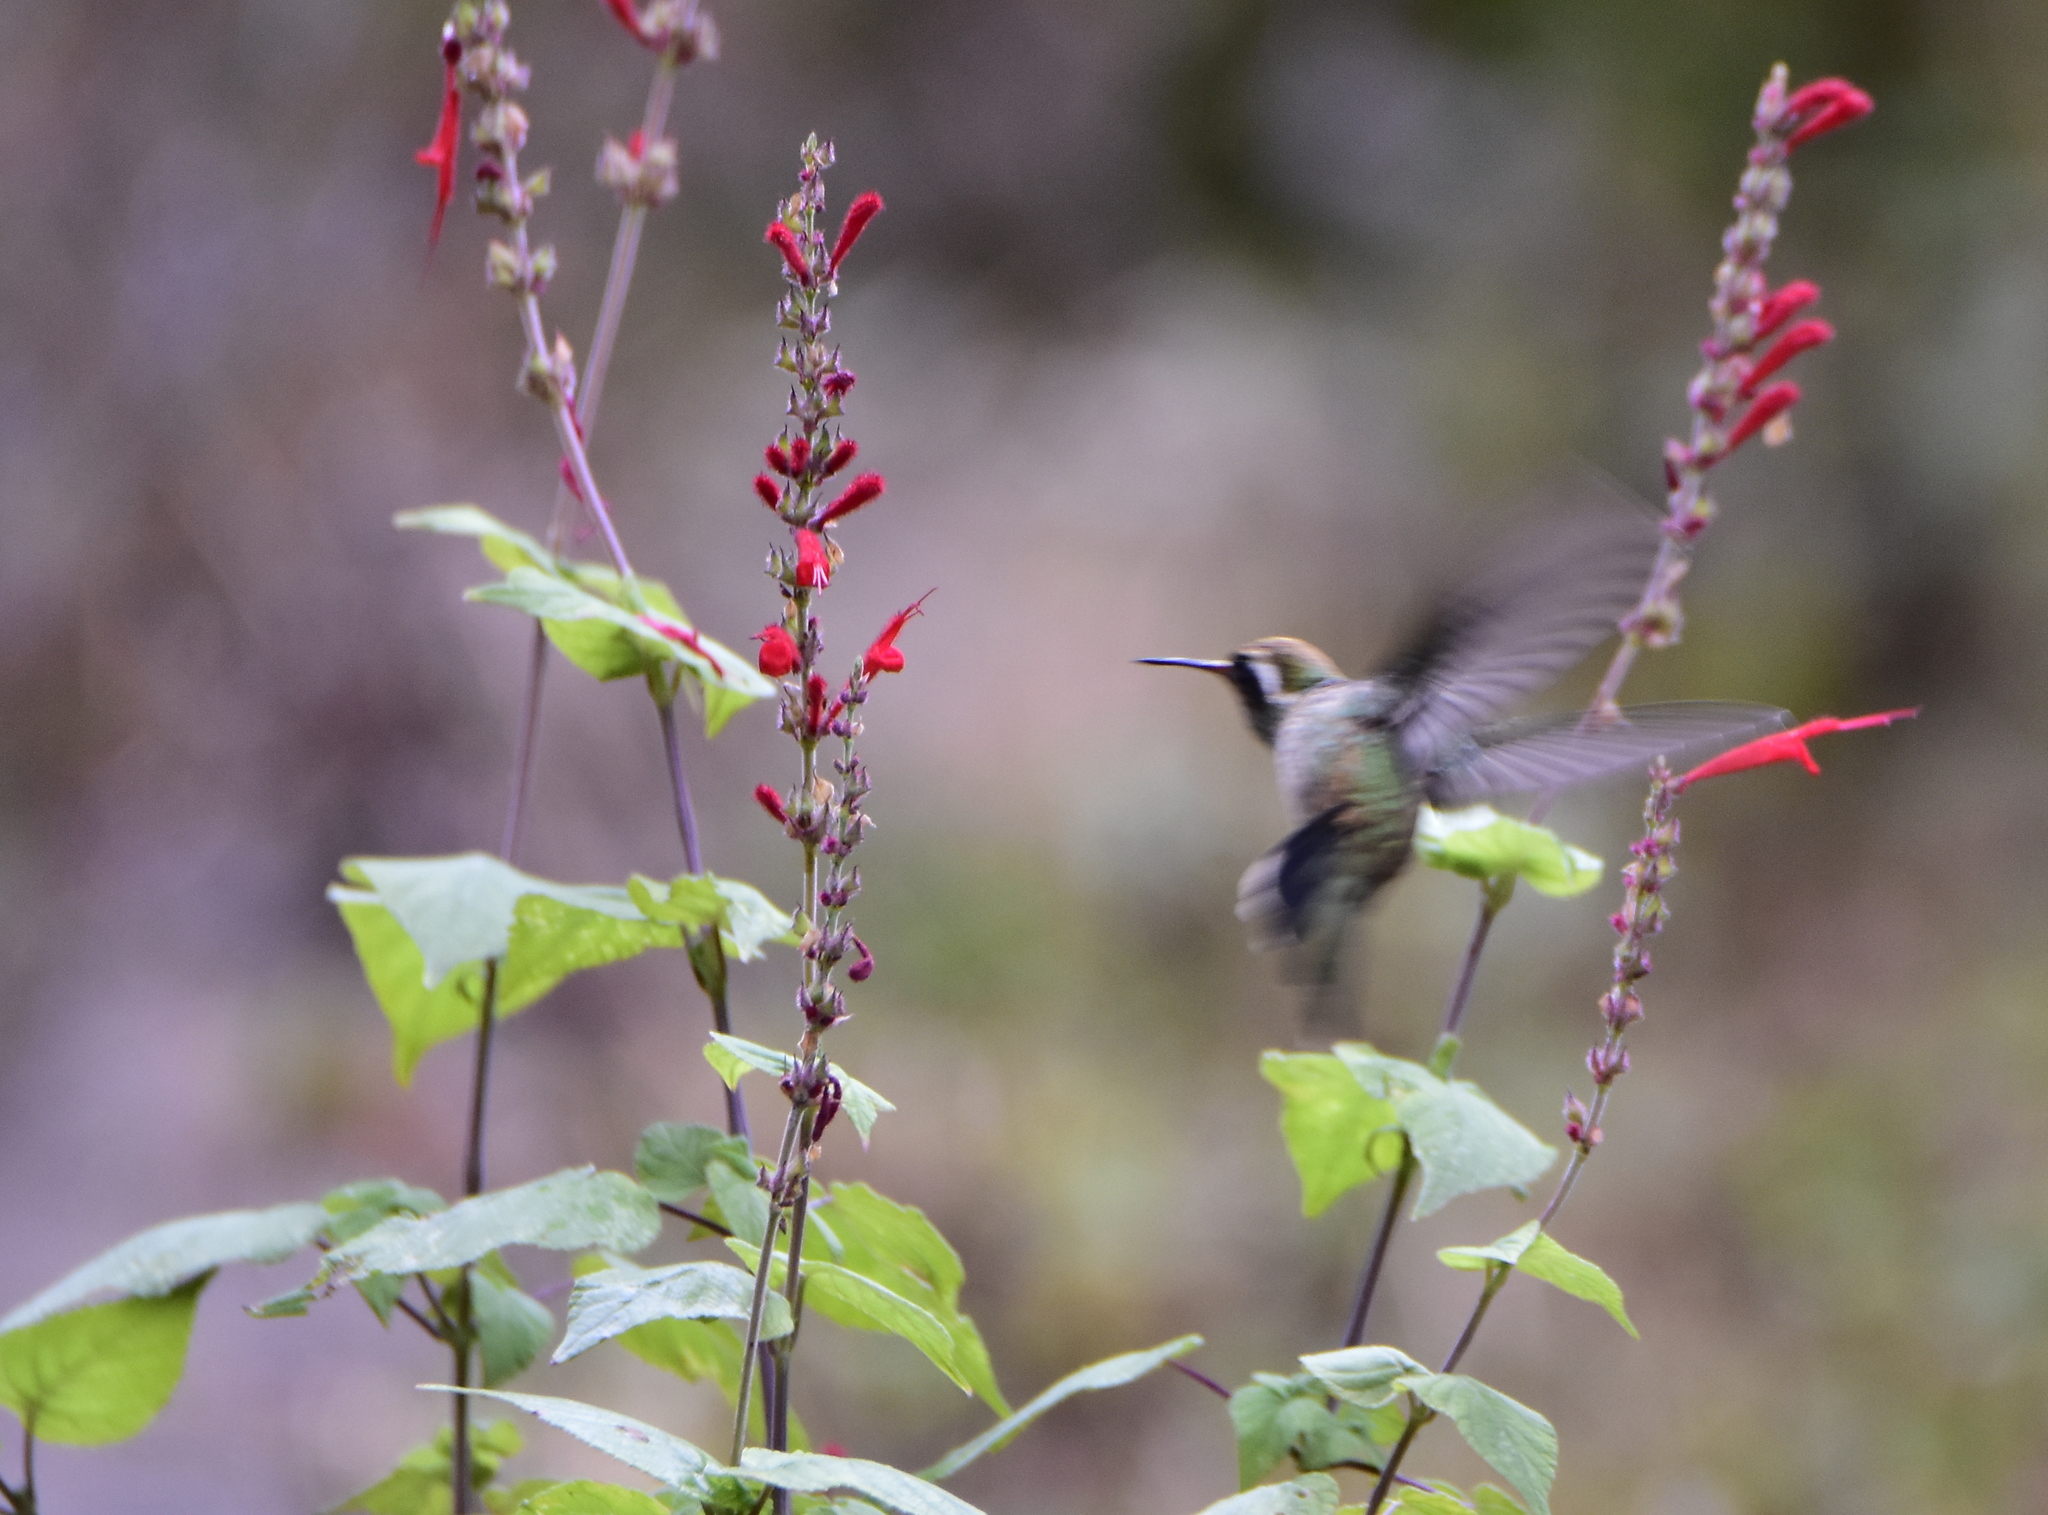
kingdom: Animalia
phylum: Chordata
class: Aves
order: Apodiformes
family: Trochilidae
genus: Basilinna
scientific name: Basilinna leucotis
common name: White-eared hummingbird
